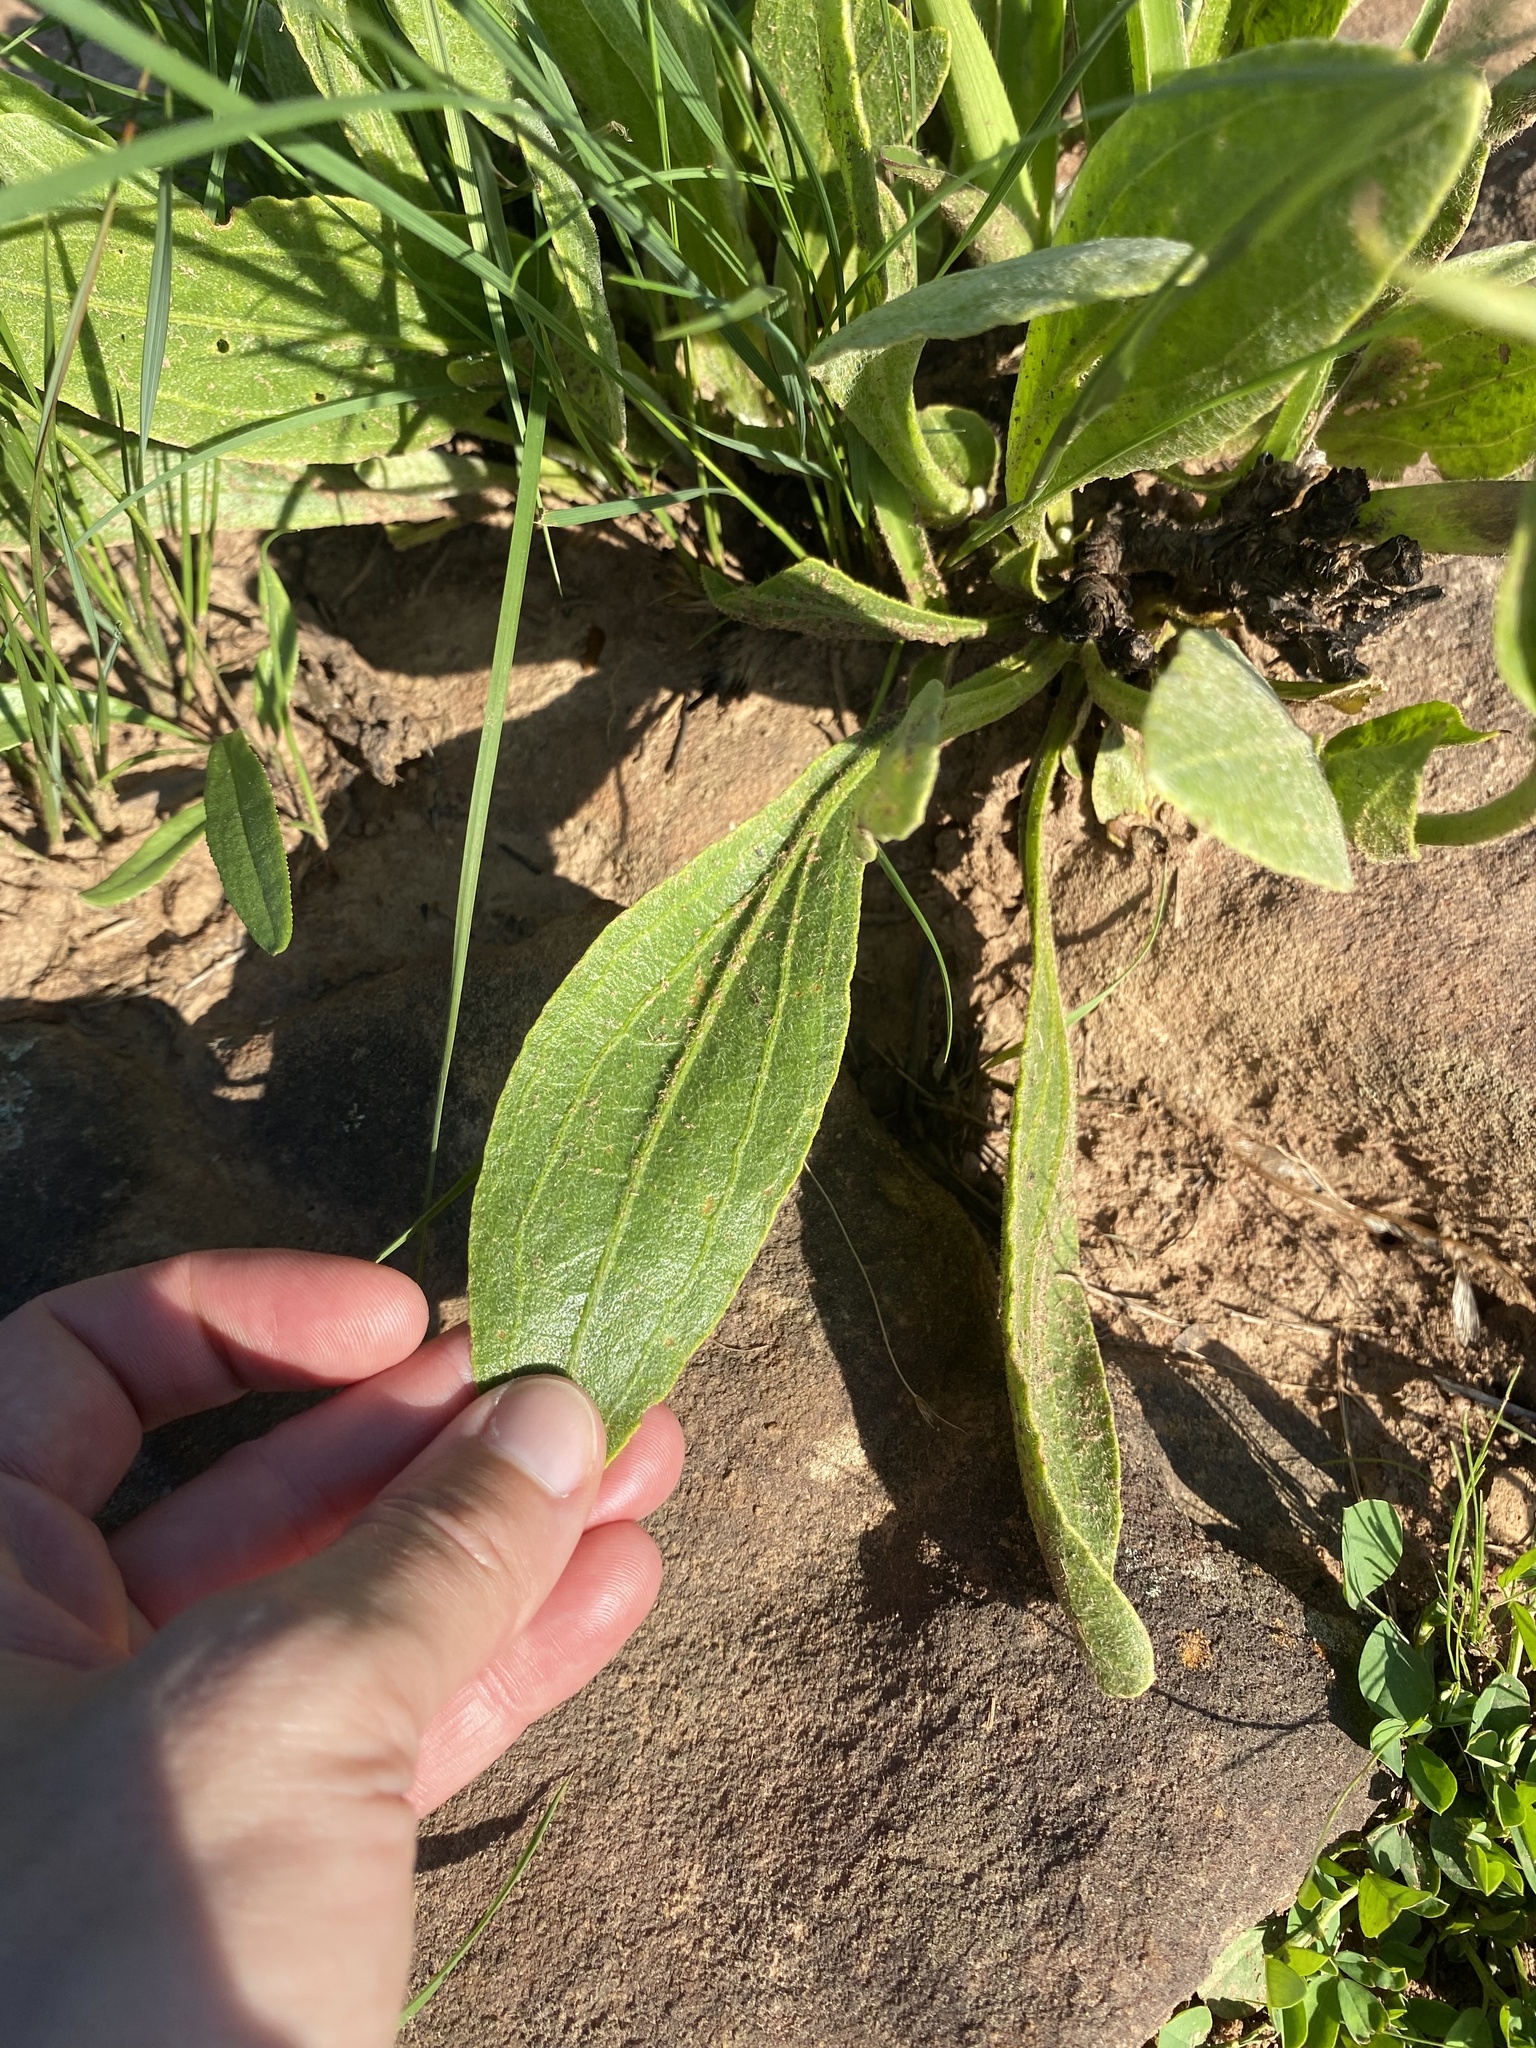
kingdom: Plantae
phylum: Tracheophyta
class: Magnoliopsida
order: Asterales
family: Asteraceae
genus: Helichrysum
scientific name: Helichrysum acutatum
